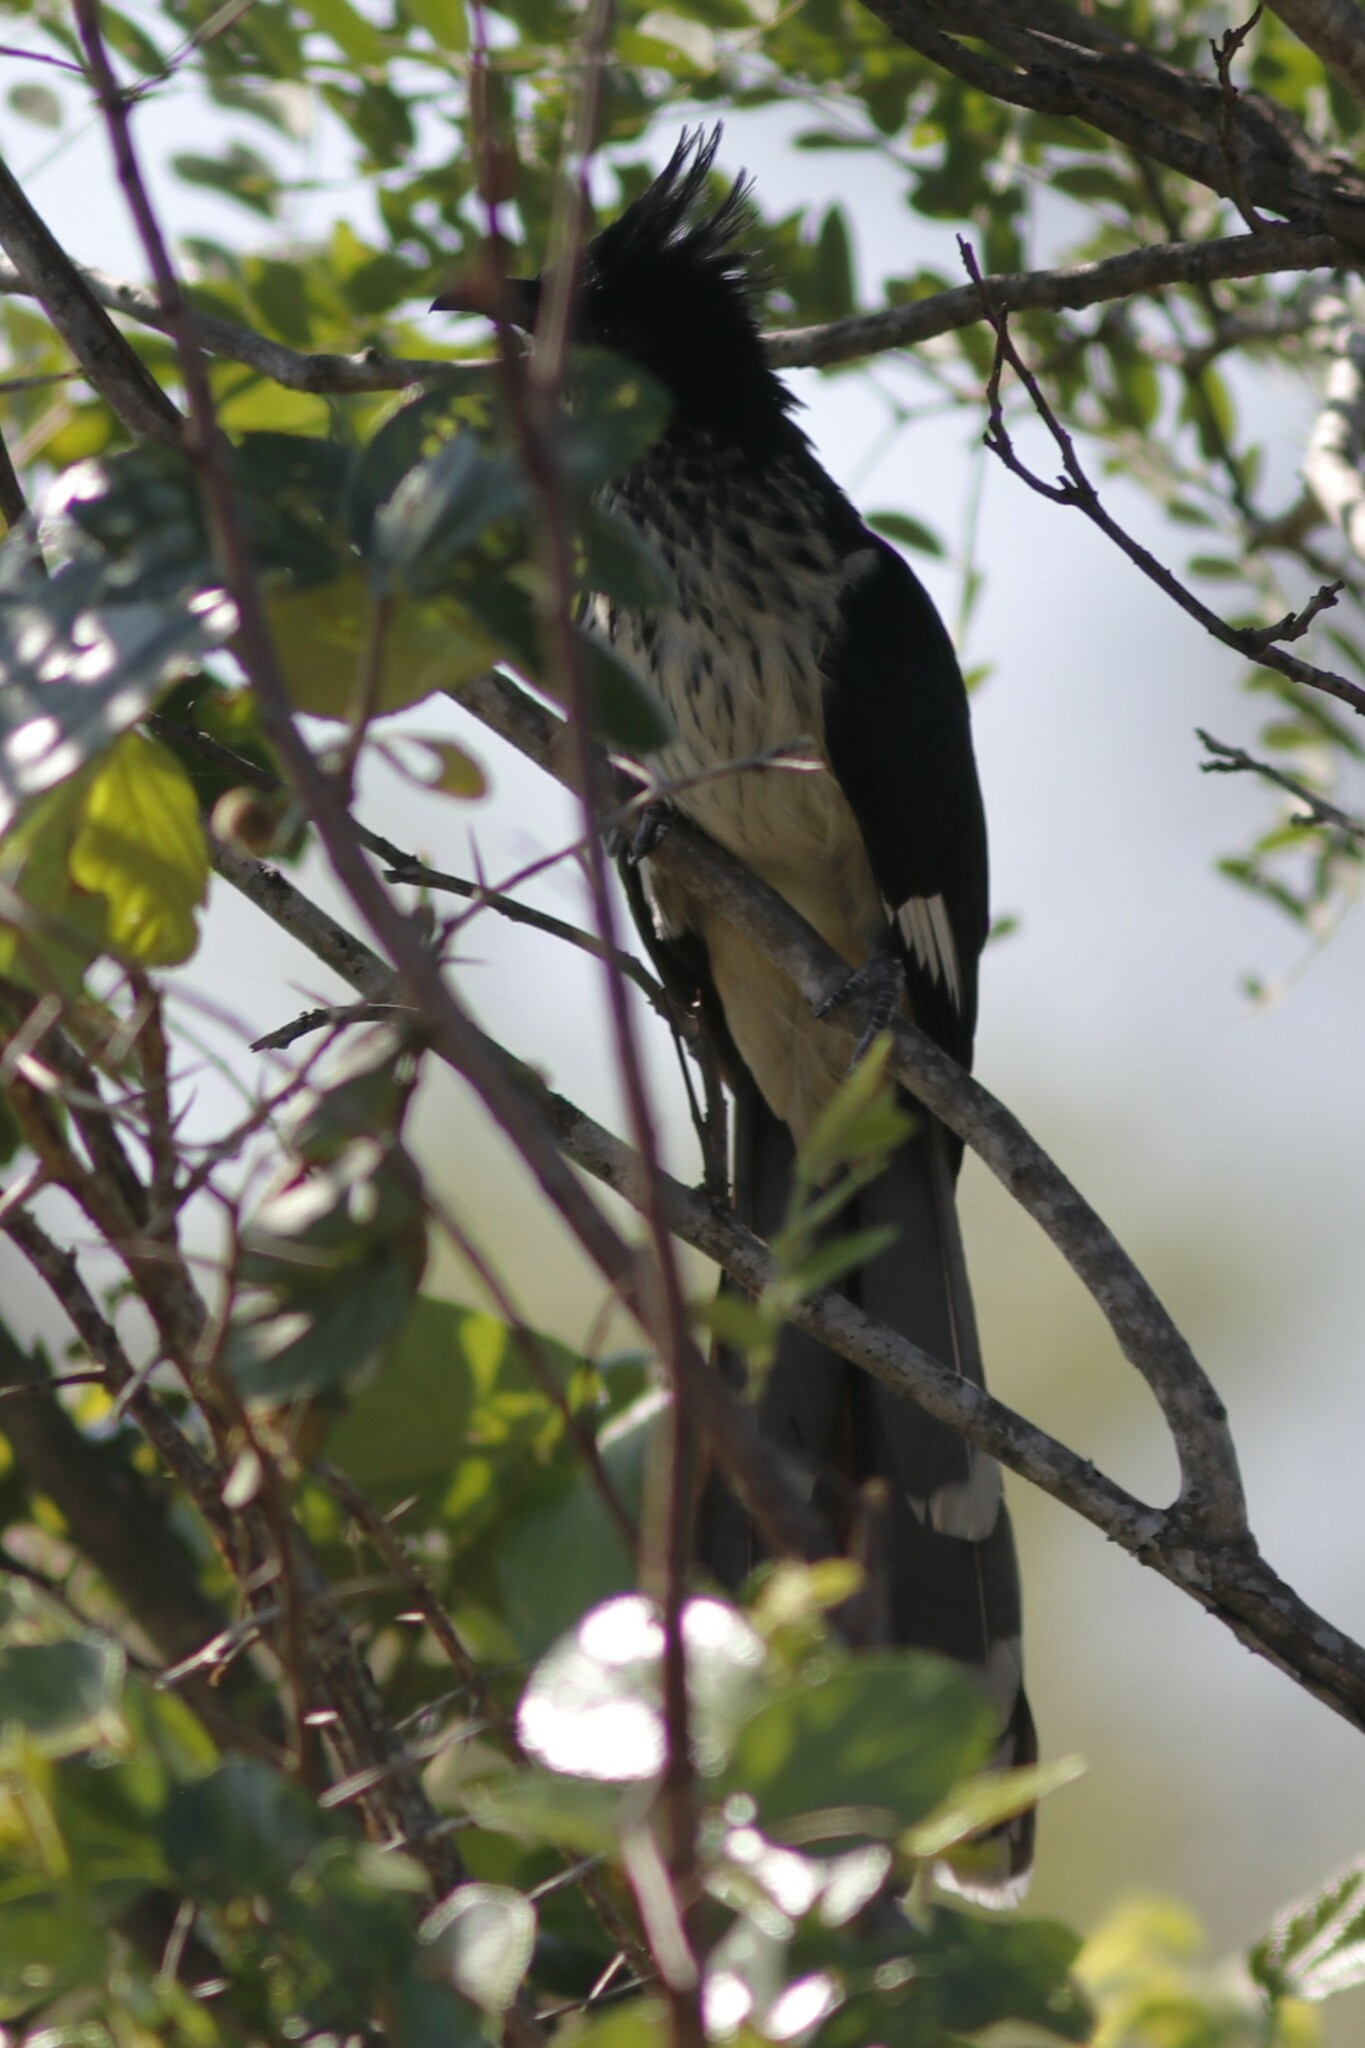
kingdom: Animalia
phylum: Chordata
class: Aves
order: Cuculiformes
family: Cuculidae
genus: Clamator
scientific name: Clamator levaillantii
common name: Levaillant's cuckoo
